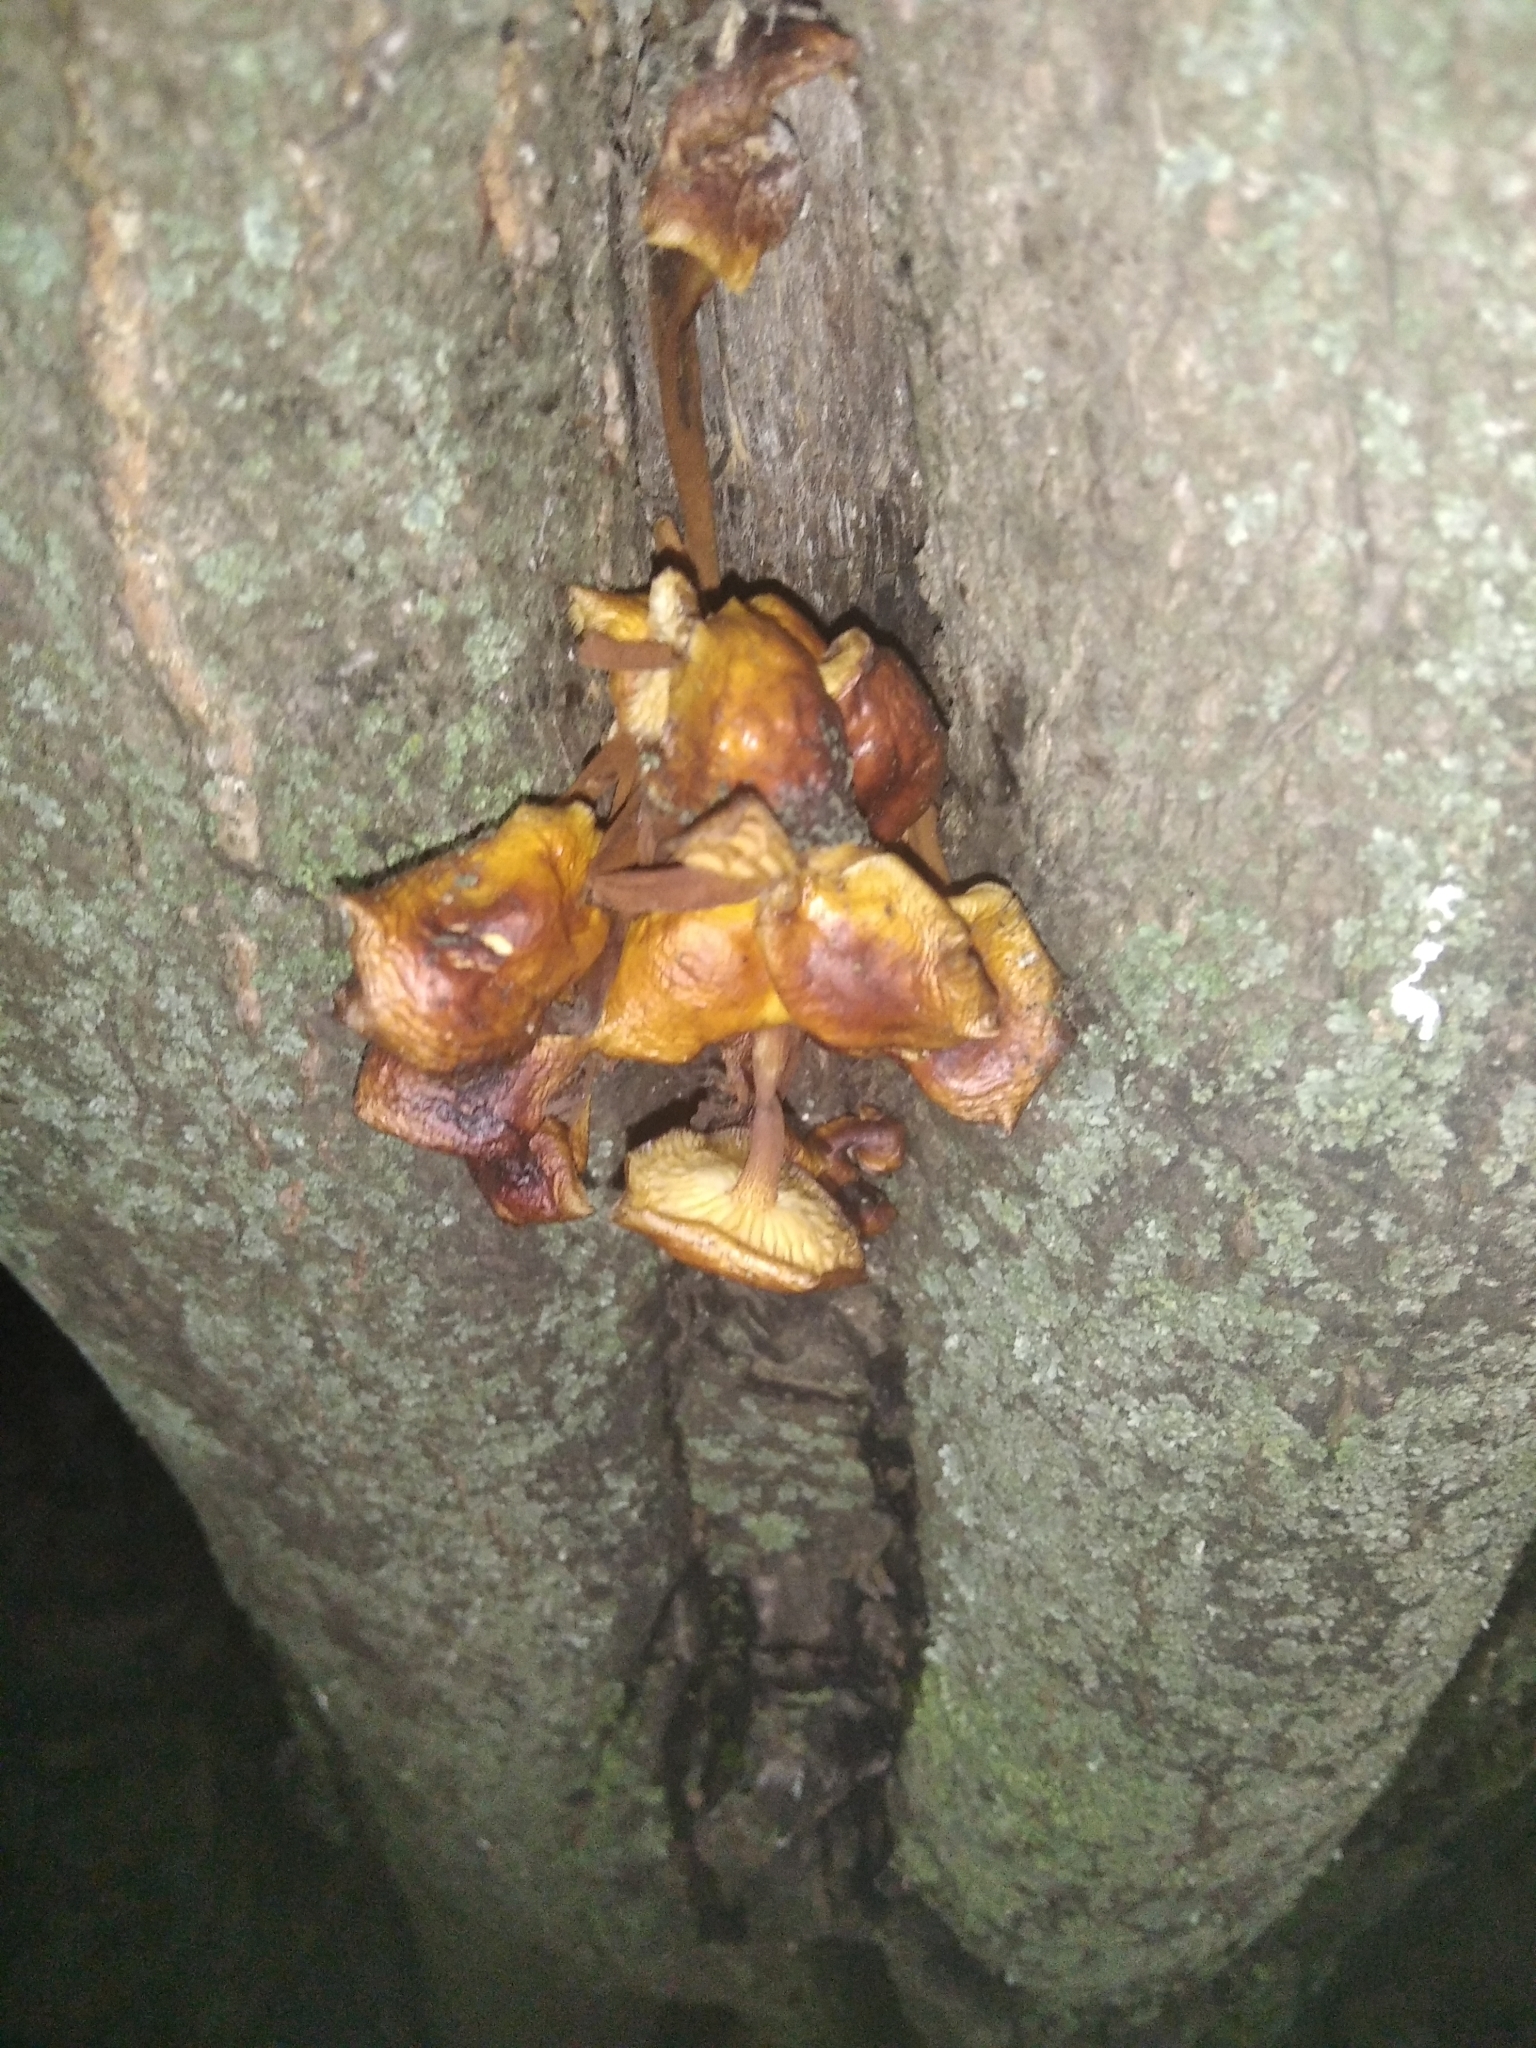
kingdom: Fungi
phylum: Basidiomycota
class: Agaricomycetes
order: Agaricales
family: Physalacriaceae
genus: Flammulina
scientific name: Flammulina
